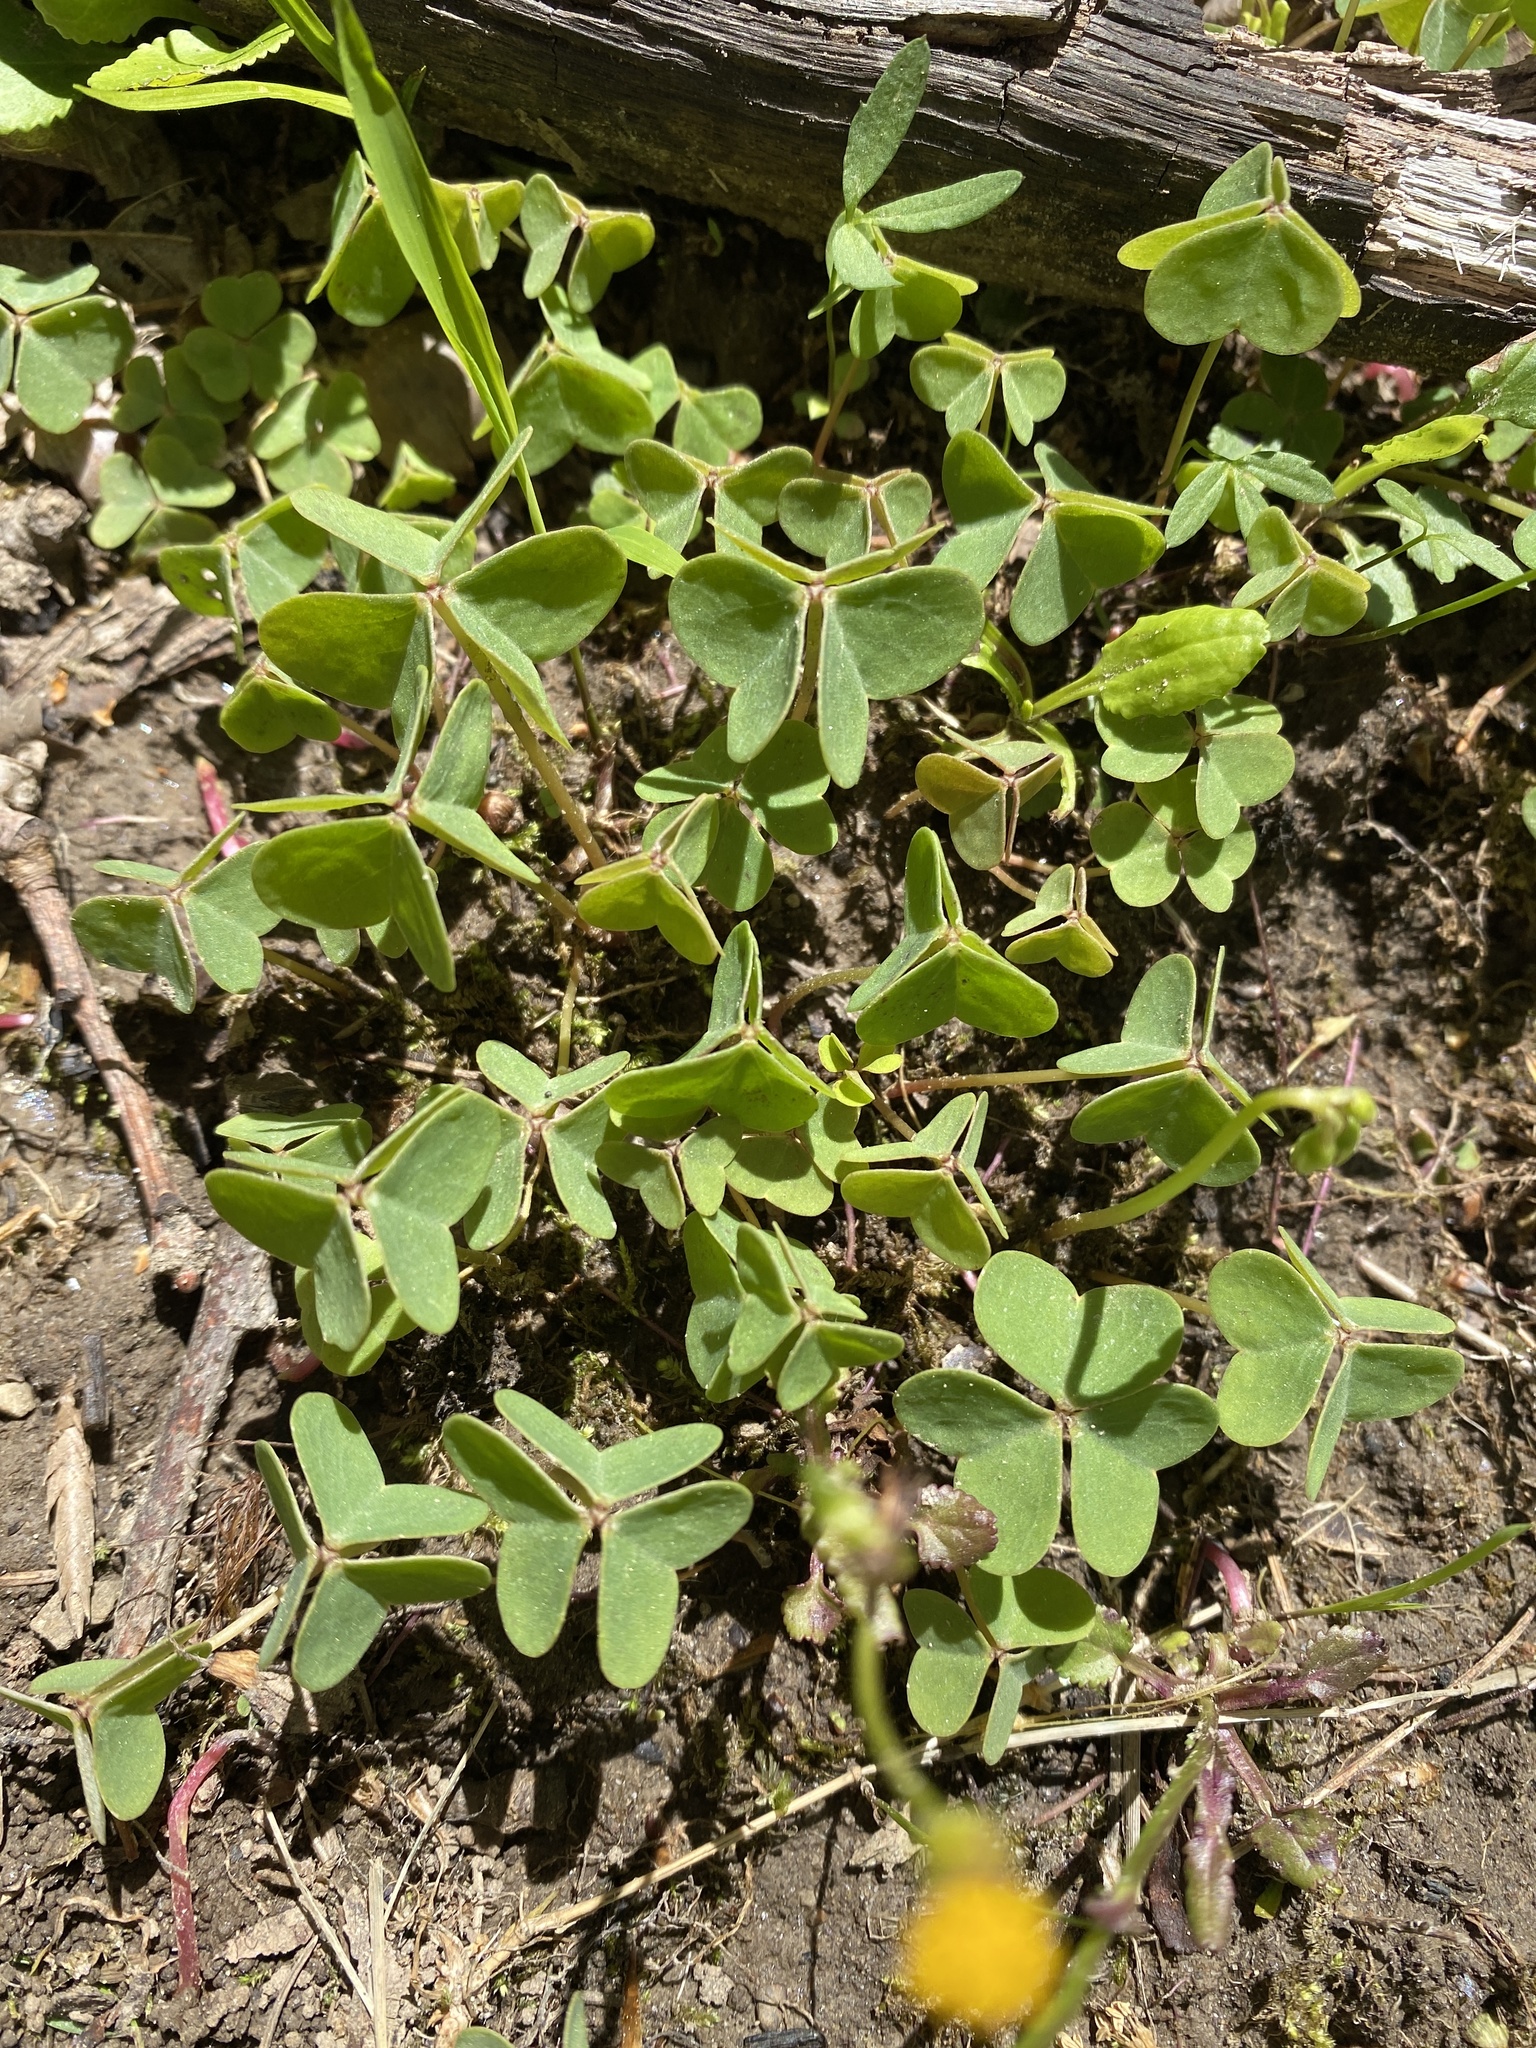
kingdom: Plantae
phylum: Tracheophyta
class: Magnoliopsida
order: Oxalidales
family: Oxalidaceae
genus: Oxalis
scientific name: Oxalis violacea
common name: Violet wood-sorrel
